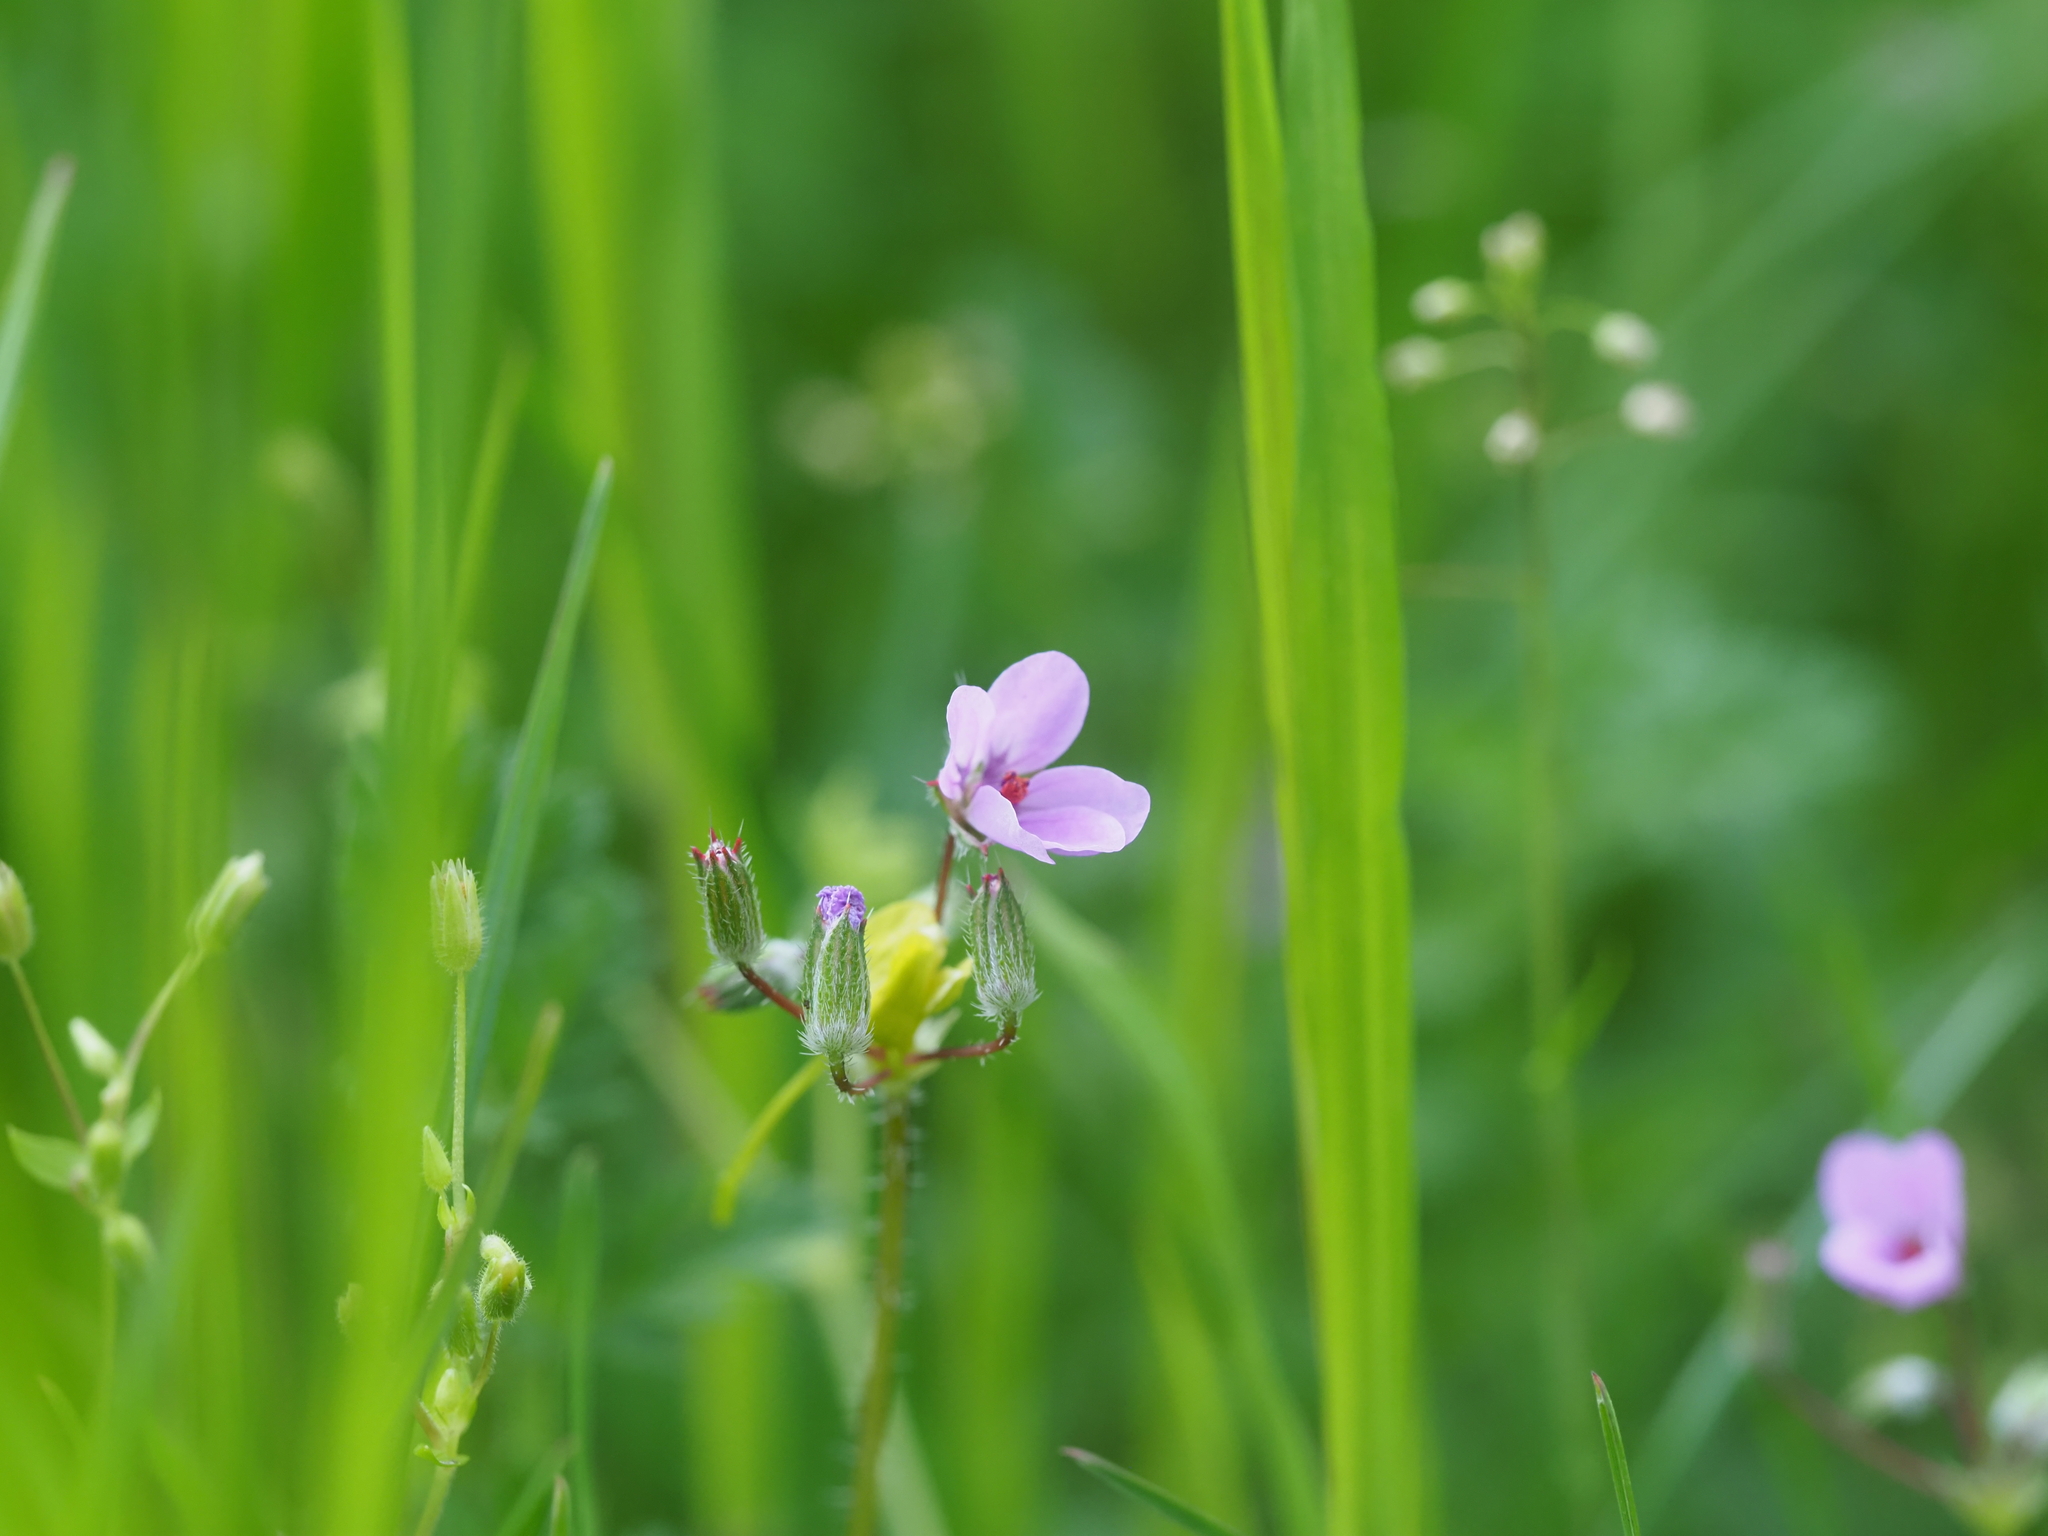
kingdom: Plantae
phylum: Tracheophyta
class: Magnoliopsida
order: Geraniales
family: Geraniaceae
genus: Erodium
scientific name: Erodium cicutarium
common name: Common stork's-bill
